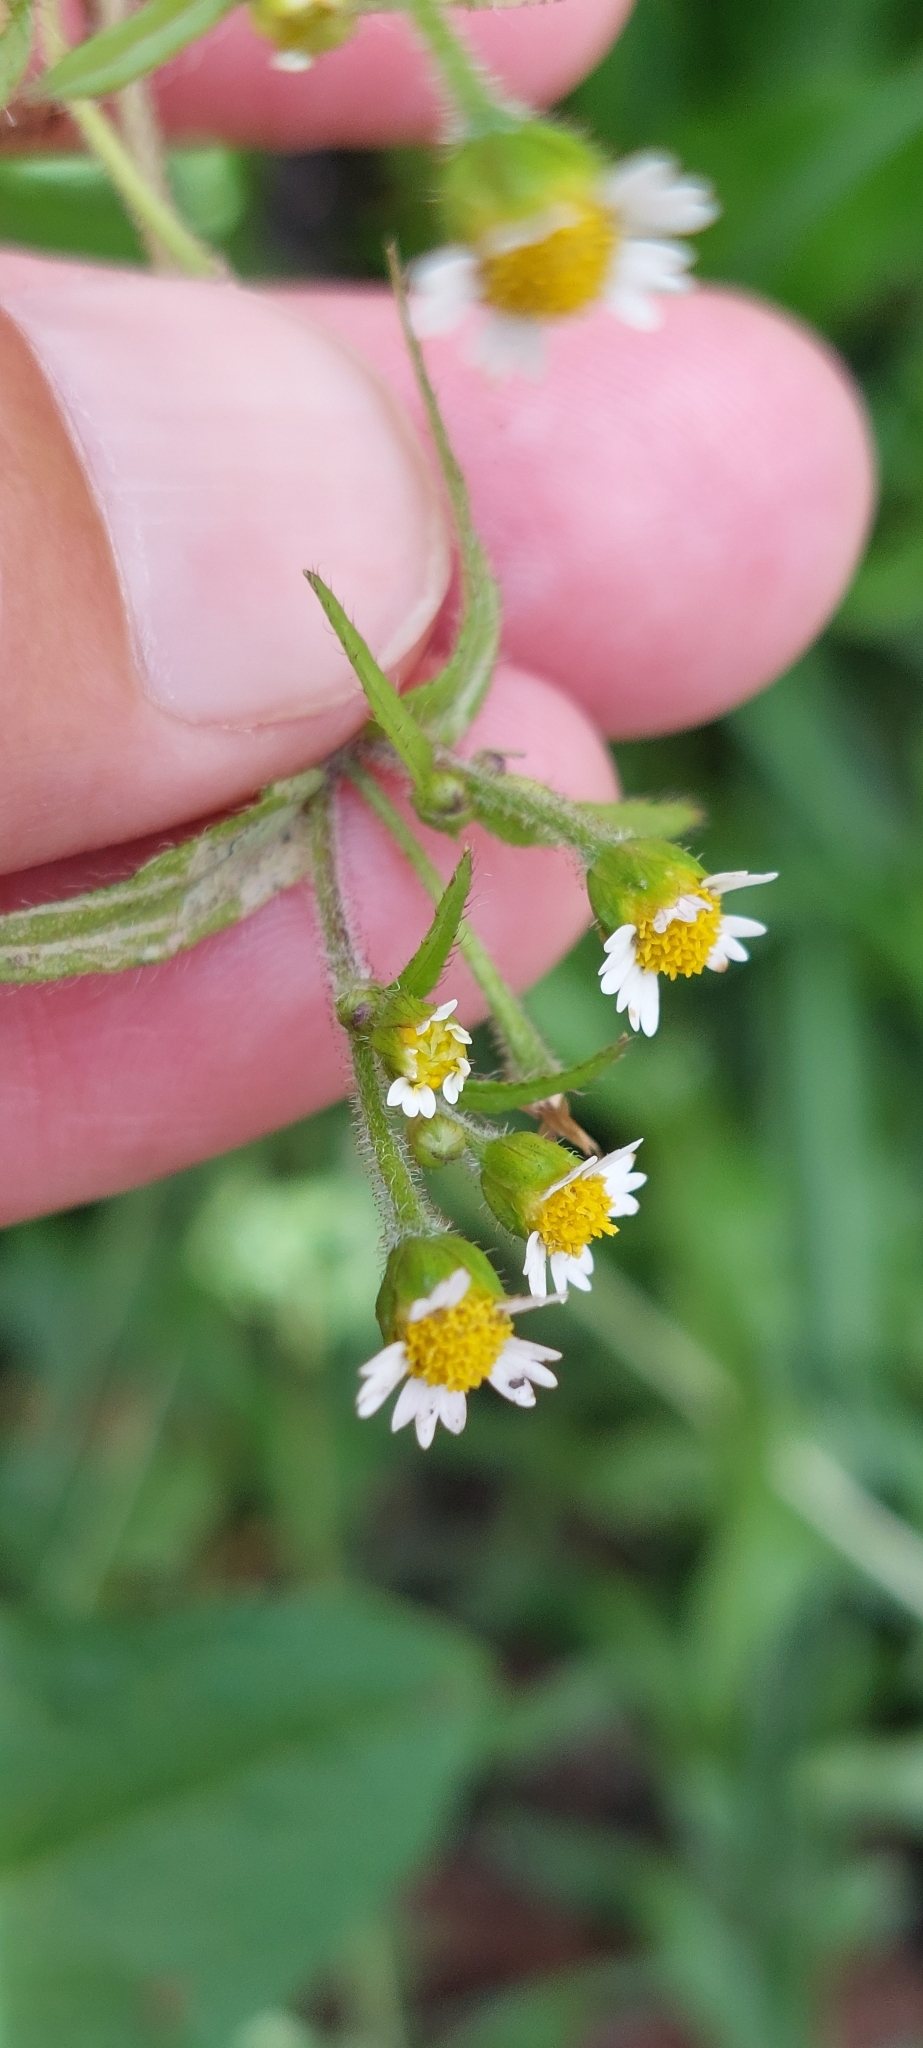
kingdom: Plantae
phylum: Tracheophyta
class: Magnoliopsida
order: Asterales
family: Asteraceae
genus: Galinsoga
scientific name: Galinsoga quadriradiata
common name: Shaggy soldier
